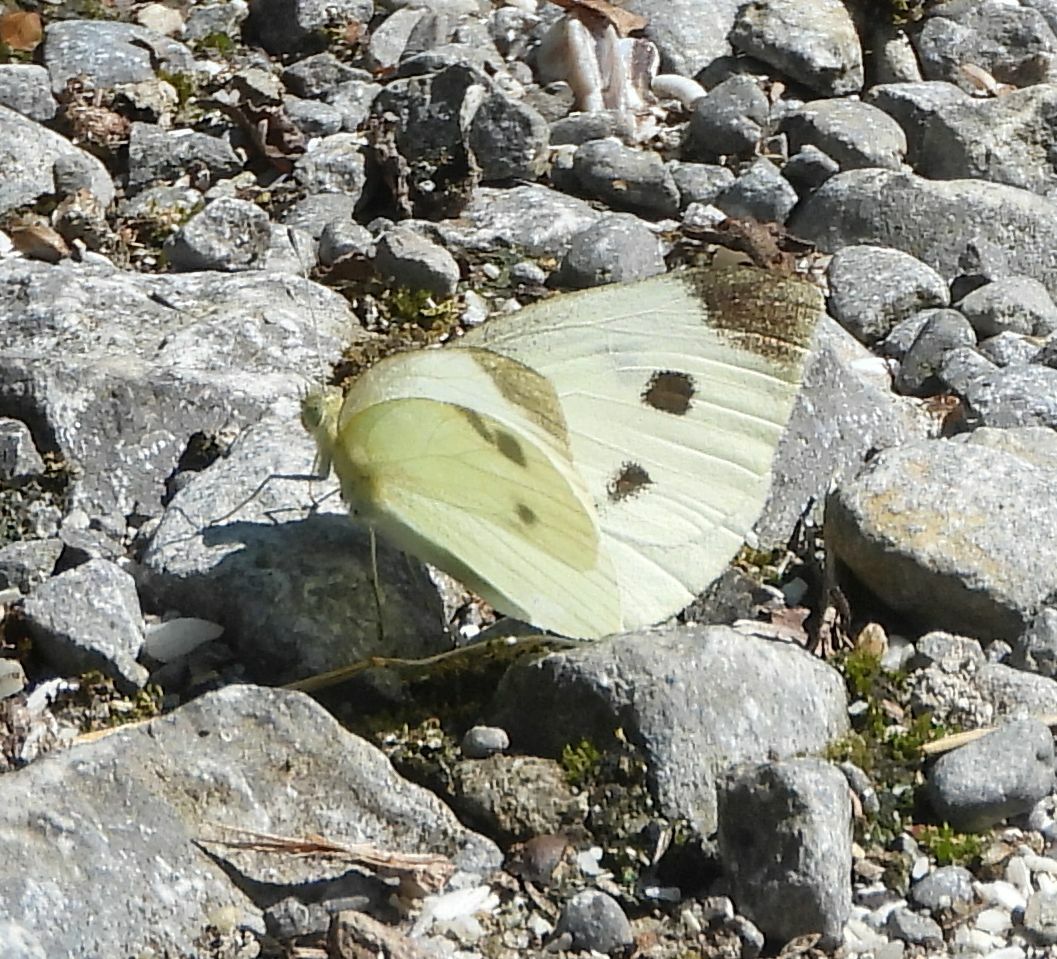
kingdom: Animalia
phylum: Arthropoda
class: Insecta
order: Lepidoptera
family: Pieridae
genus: Pieris
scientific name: Pieris rapae
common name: Small white
